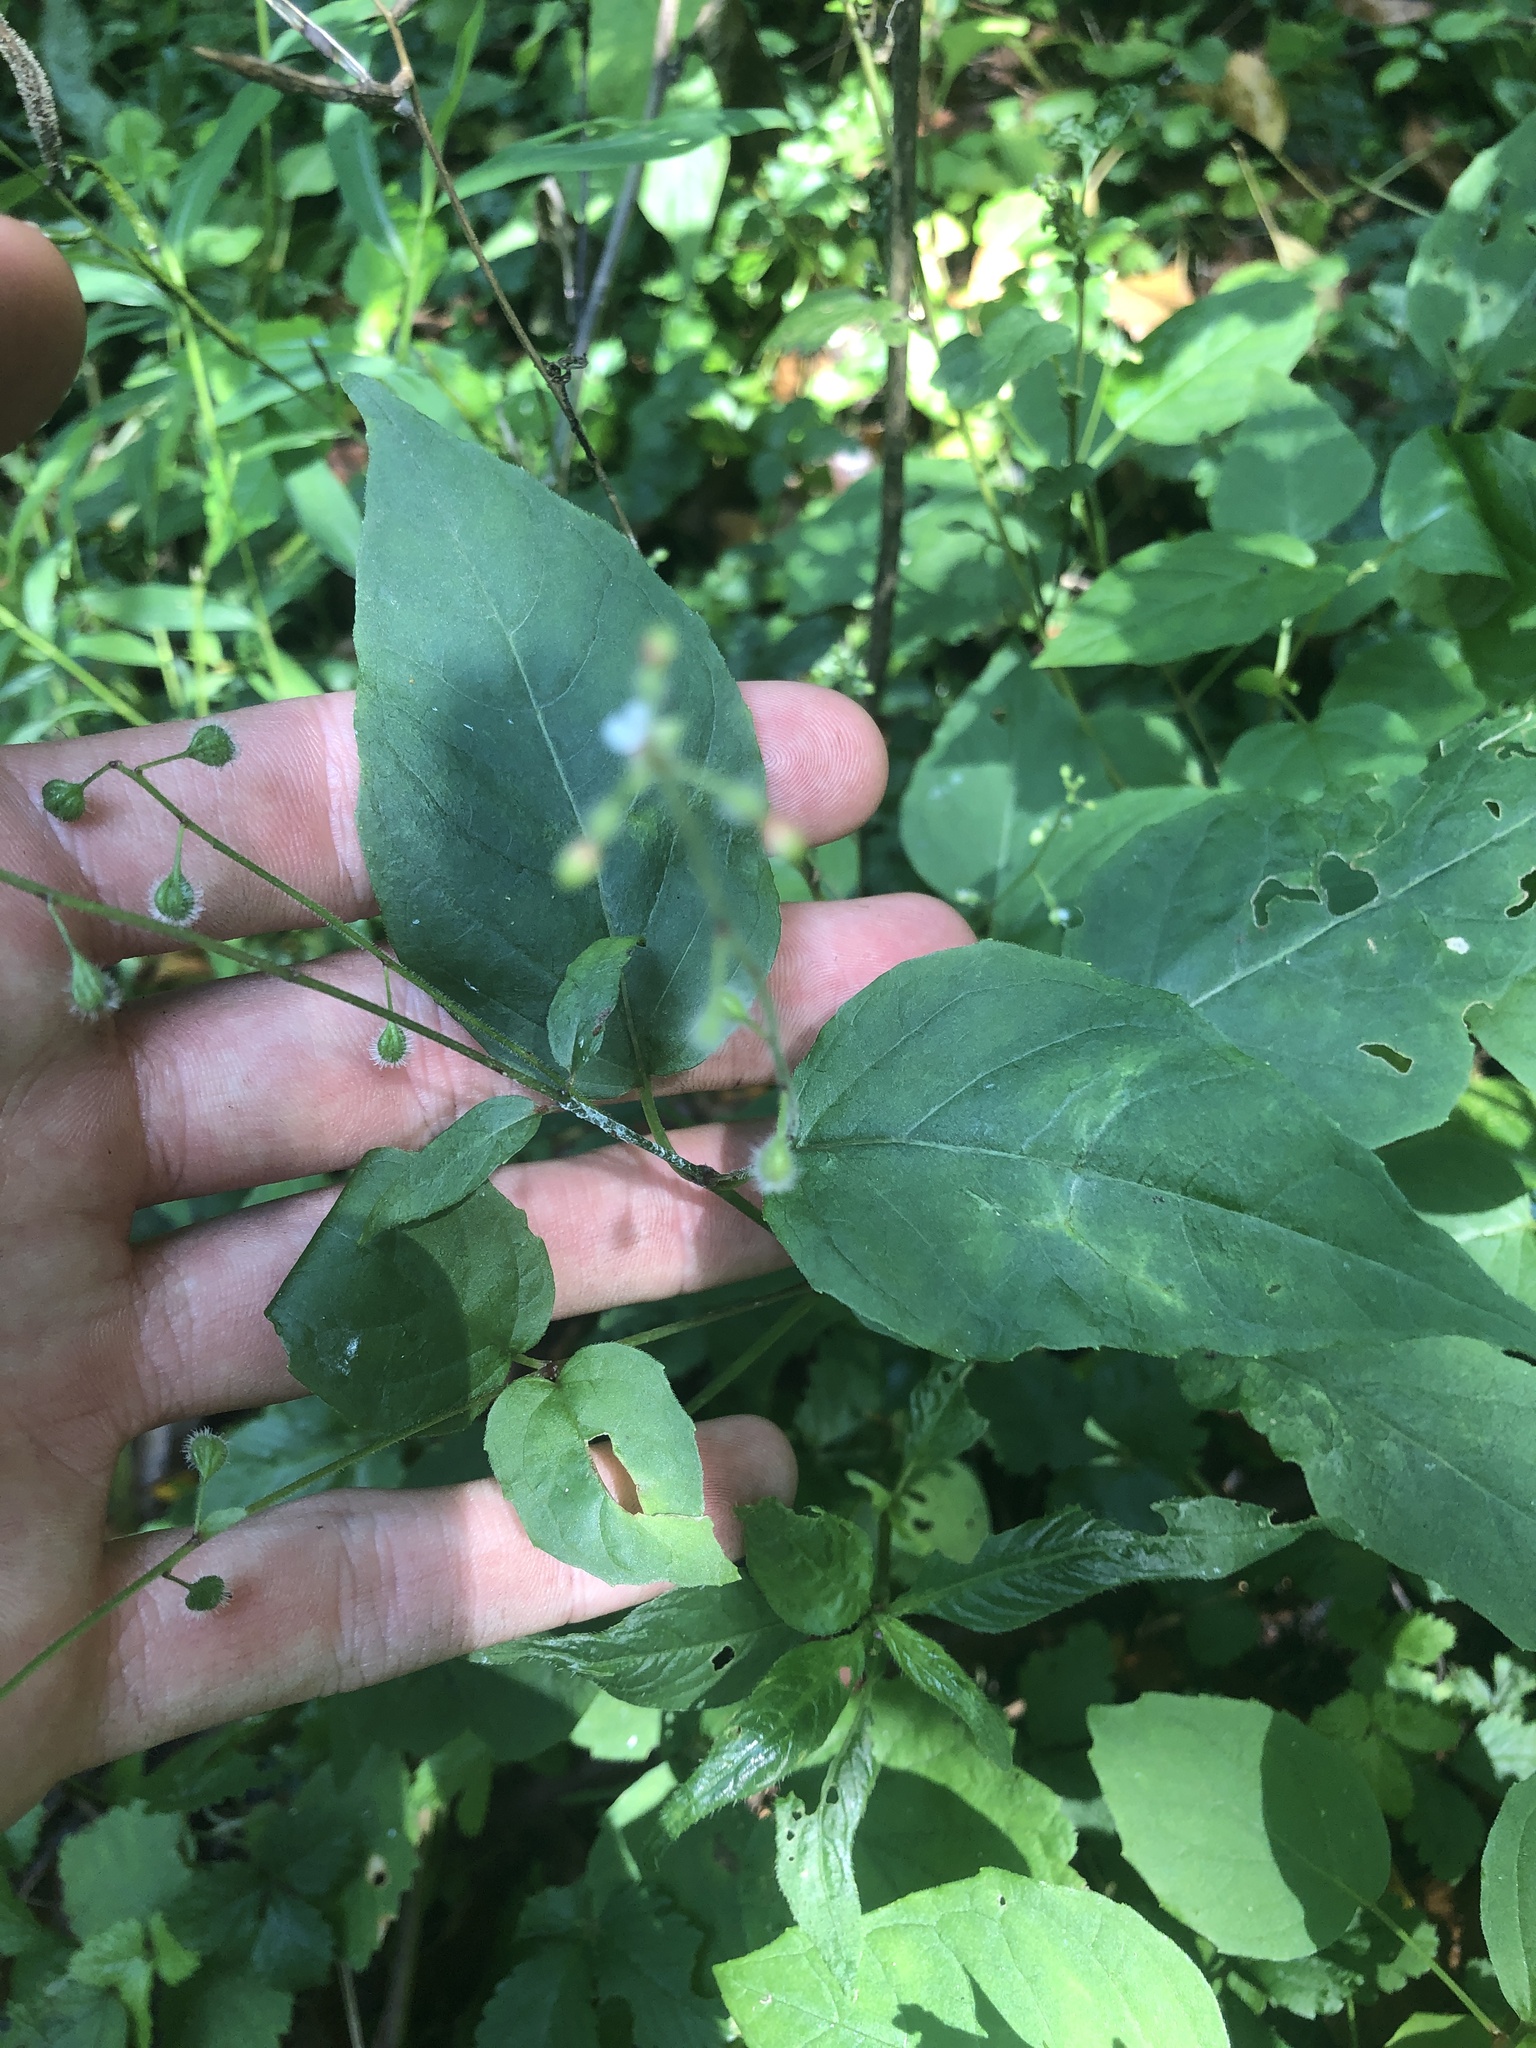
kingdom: Plantae
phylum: Tracheophyta
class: Magnoliopsida
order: Myrtales
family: Onagraceae
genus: Circaea
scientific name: Circaea canadensis
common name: Broad-leaved enchanter's nightshade
